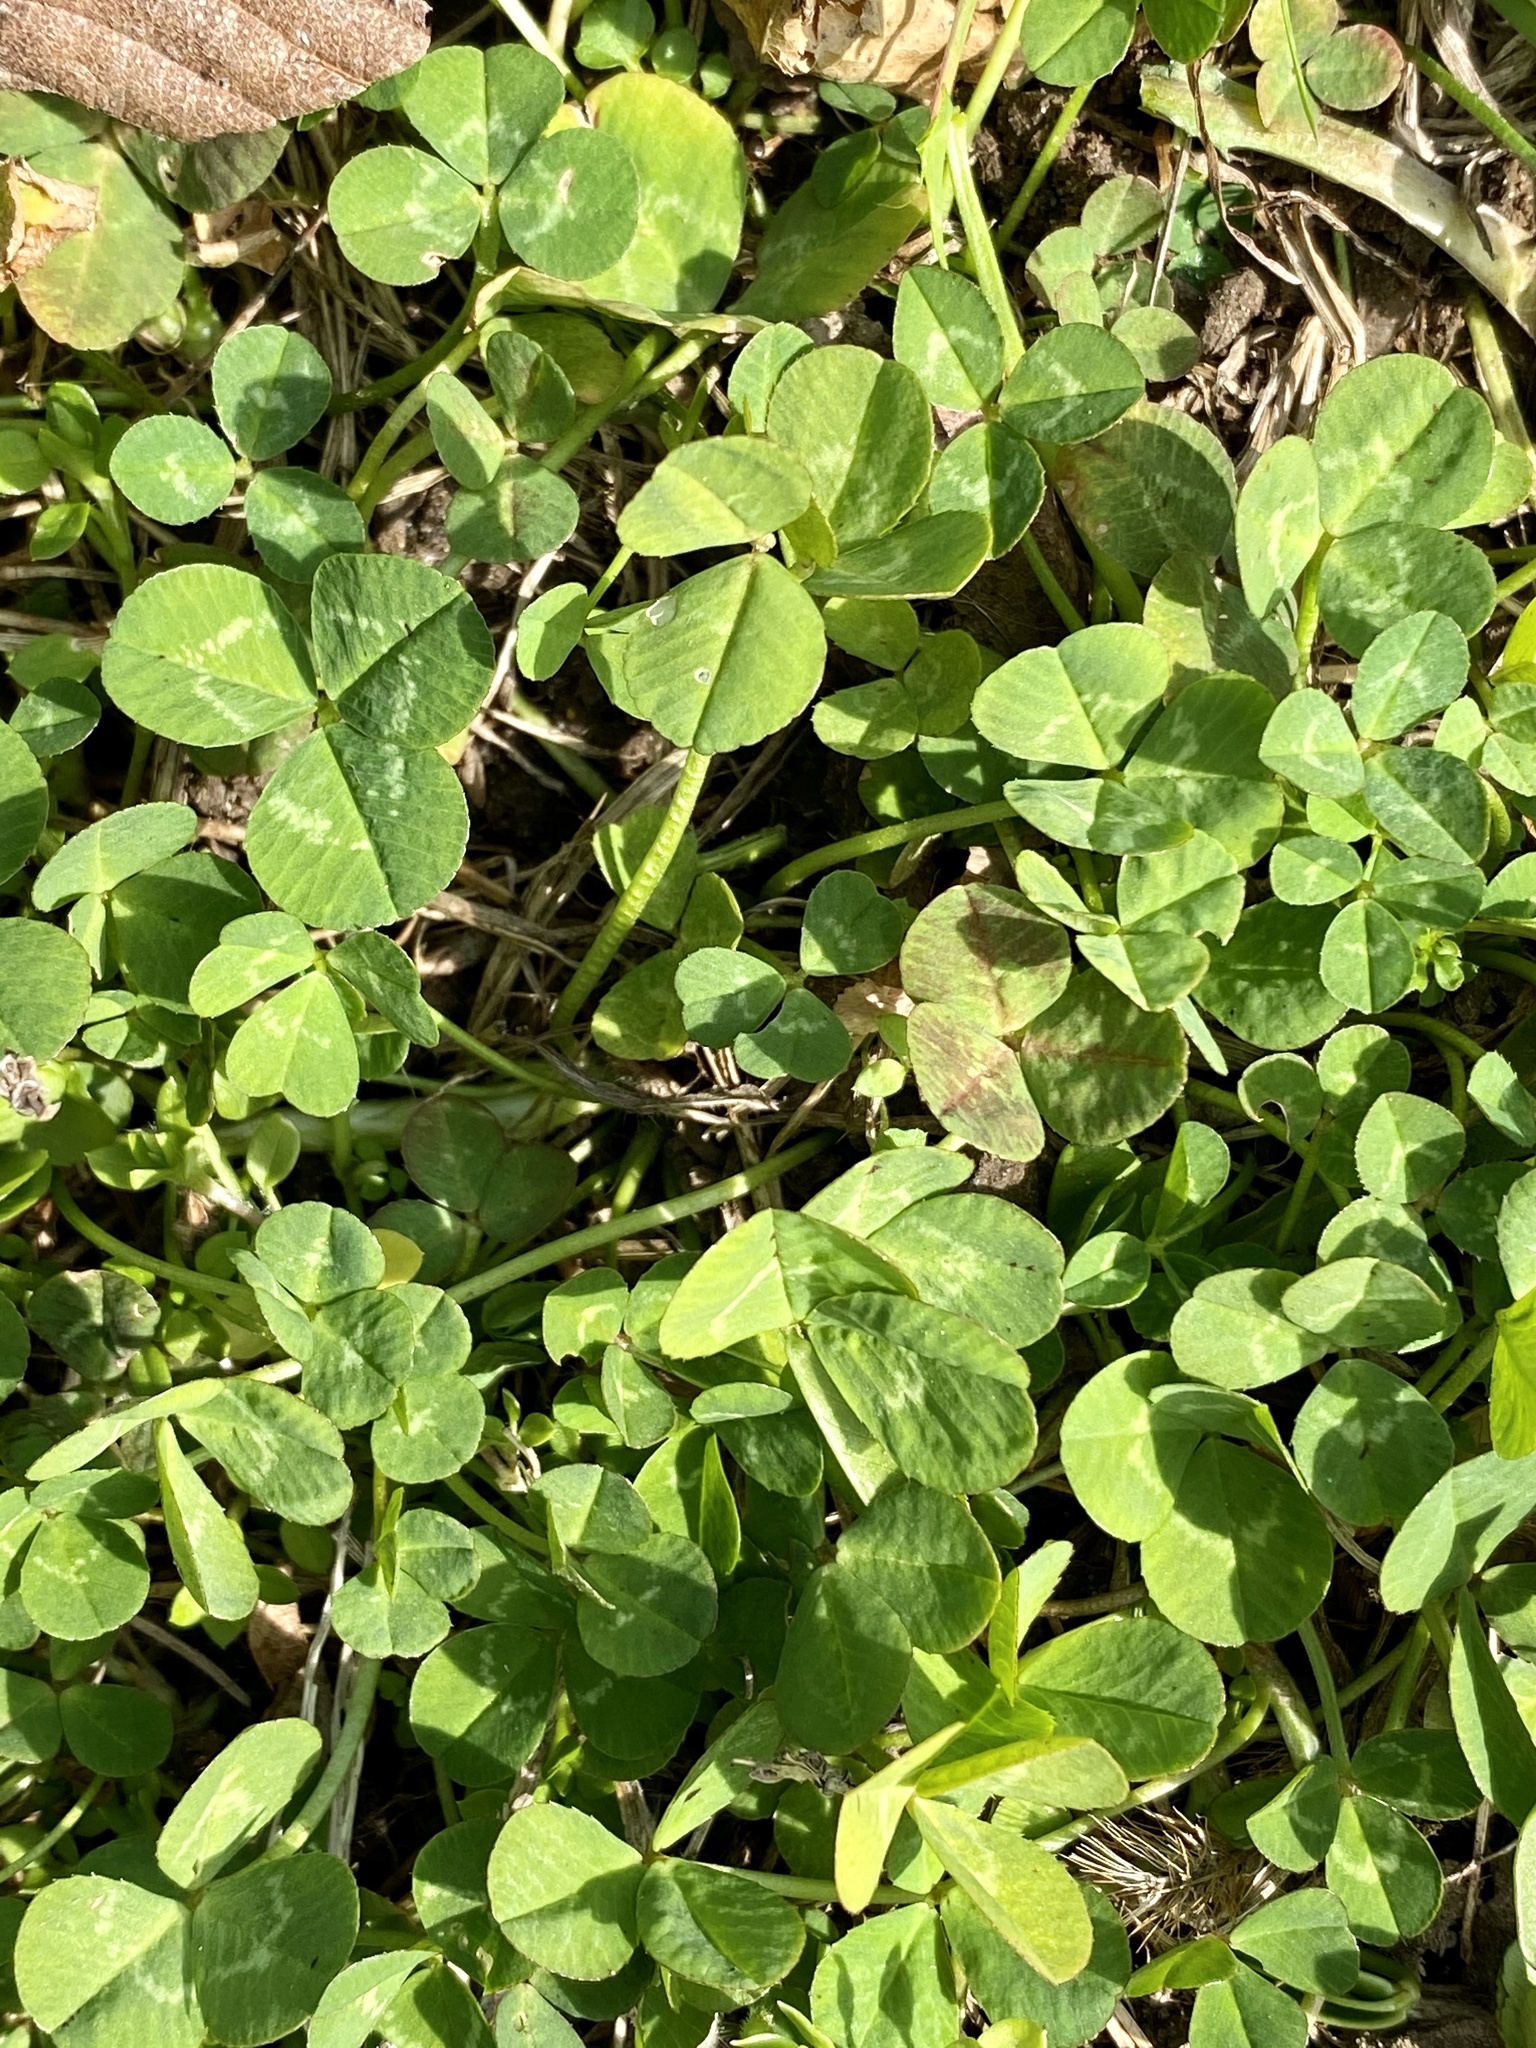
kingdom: Plantae
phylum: Tracheophyta
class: Magnoliopsida
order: Fabales
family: Fabaceae
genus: Trifolium
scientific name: Trifolium repens
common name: White clover
